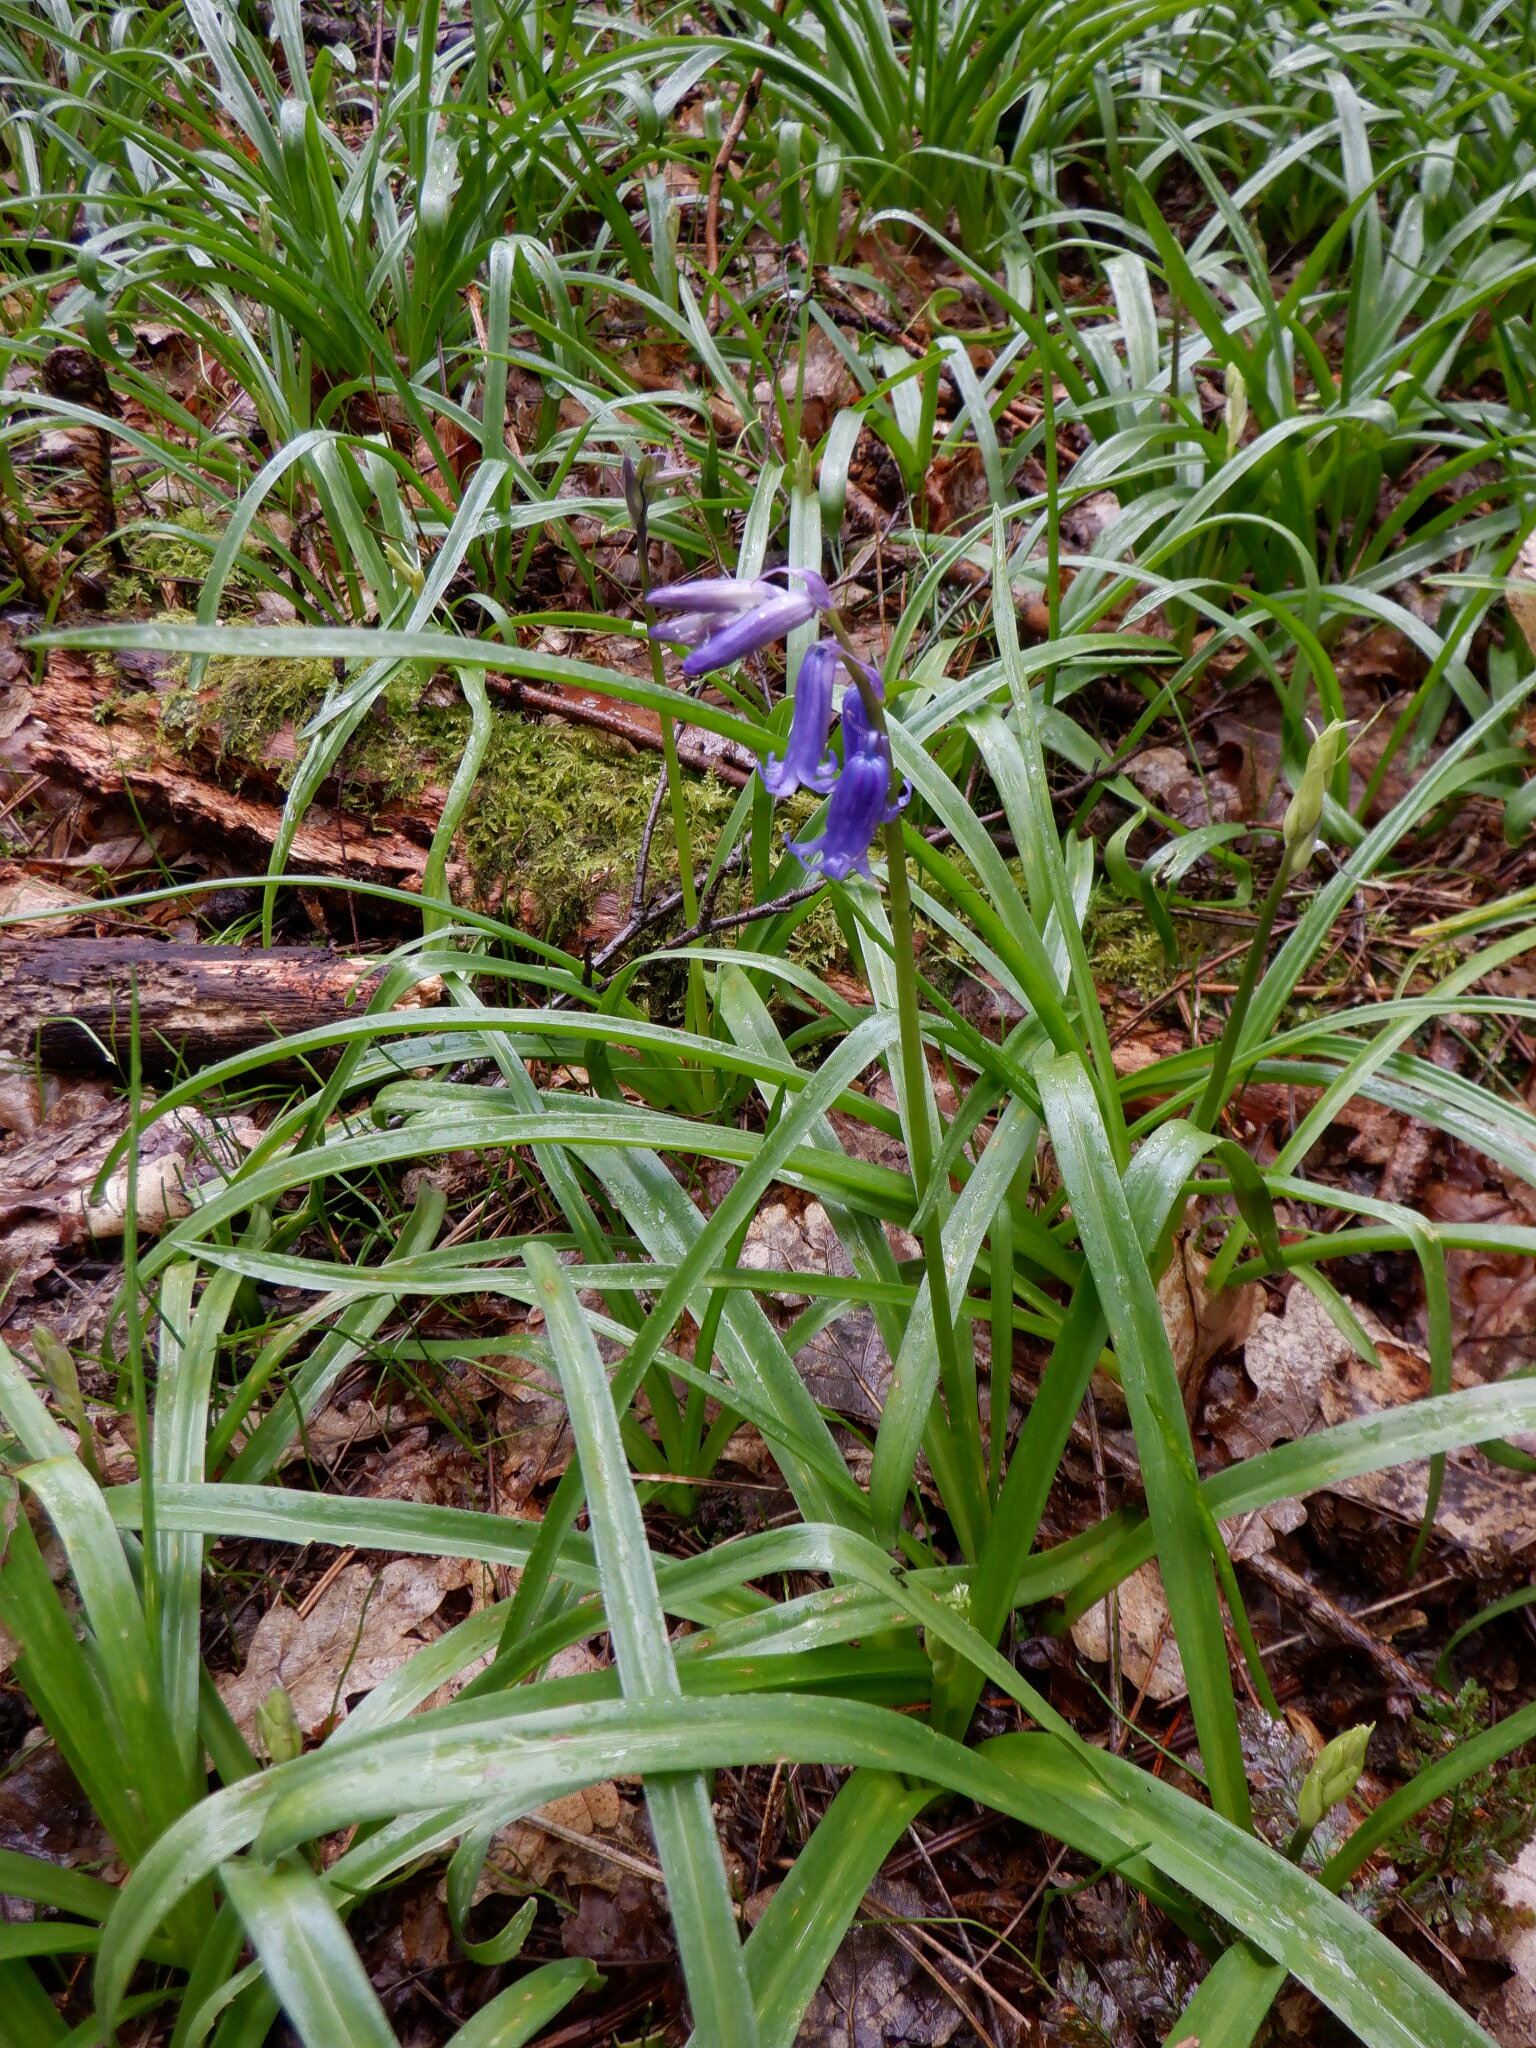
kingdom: Plantae
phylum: Tracheophyta
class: Liliopsida
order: Asparagales
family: Asparagaceae
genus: Hyacinthoides
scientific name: Hyacinthoides non-scripta
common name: Bluebell
